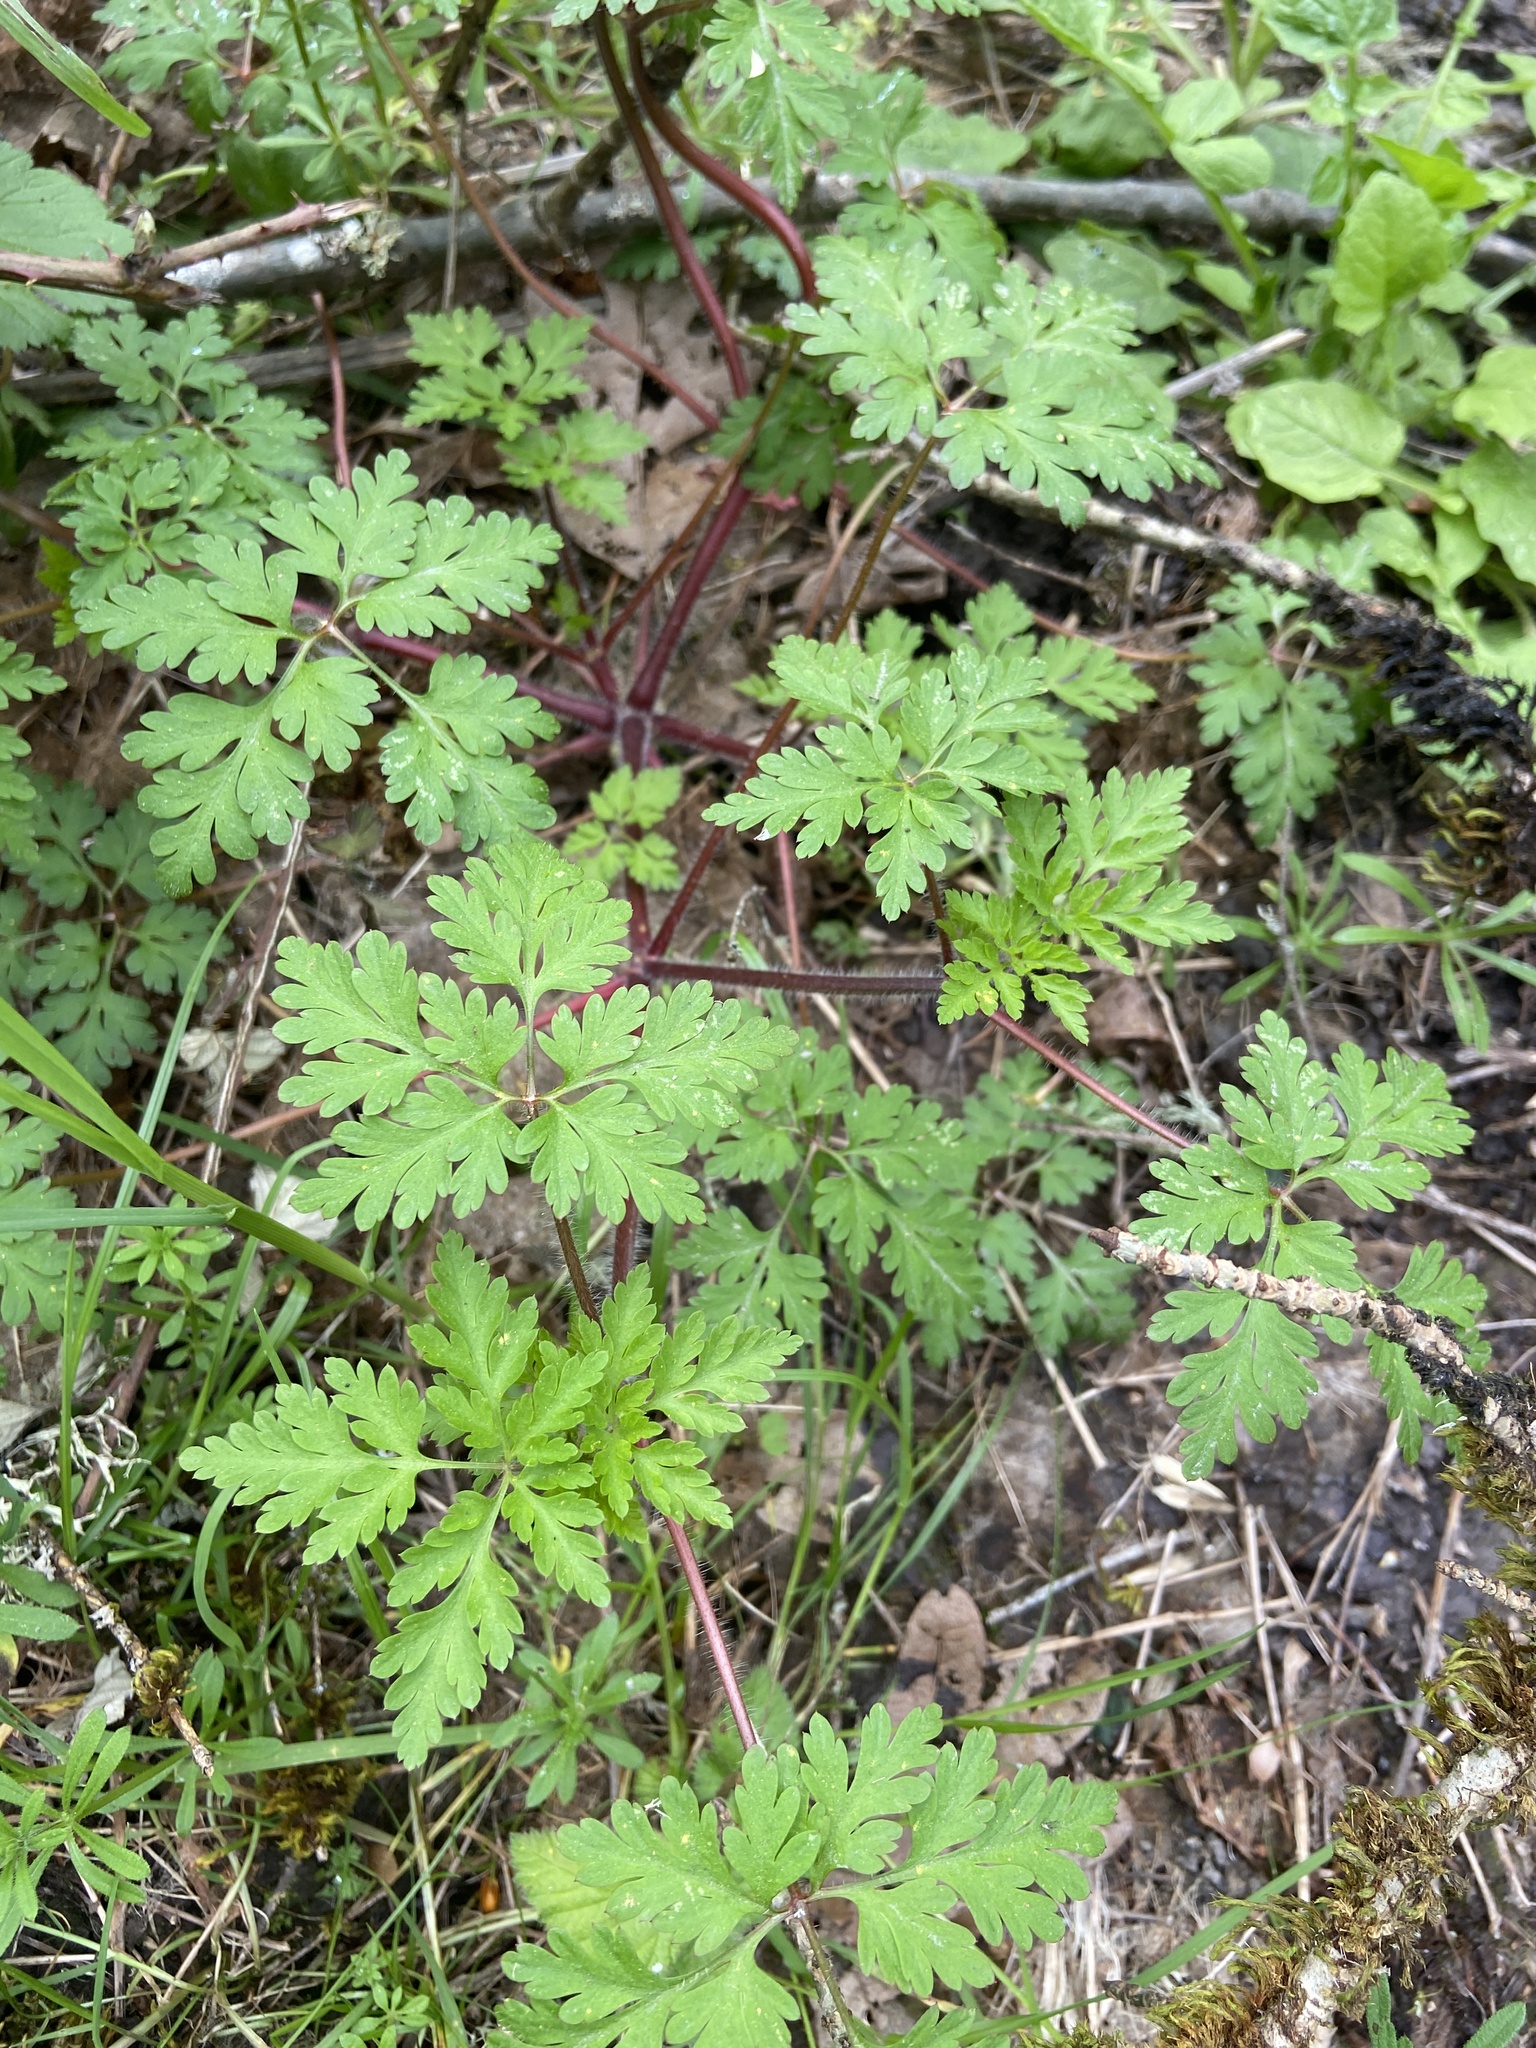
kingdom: Plantae
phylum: Tracheophyta
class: Magnoliopsida
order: Geraniales
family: Geraniaceae
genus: Geranium
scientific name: Geranium robertianum
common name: Herb-robert
